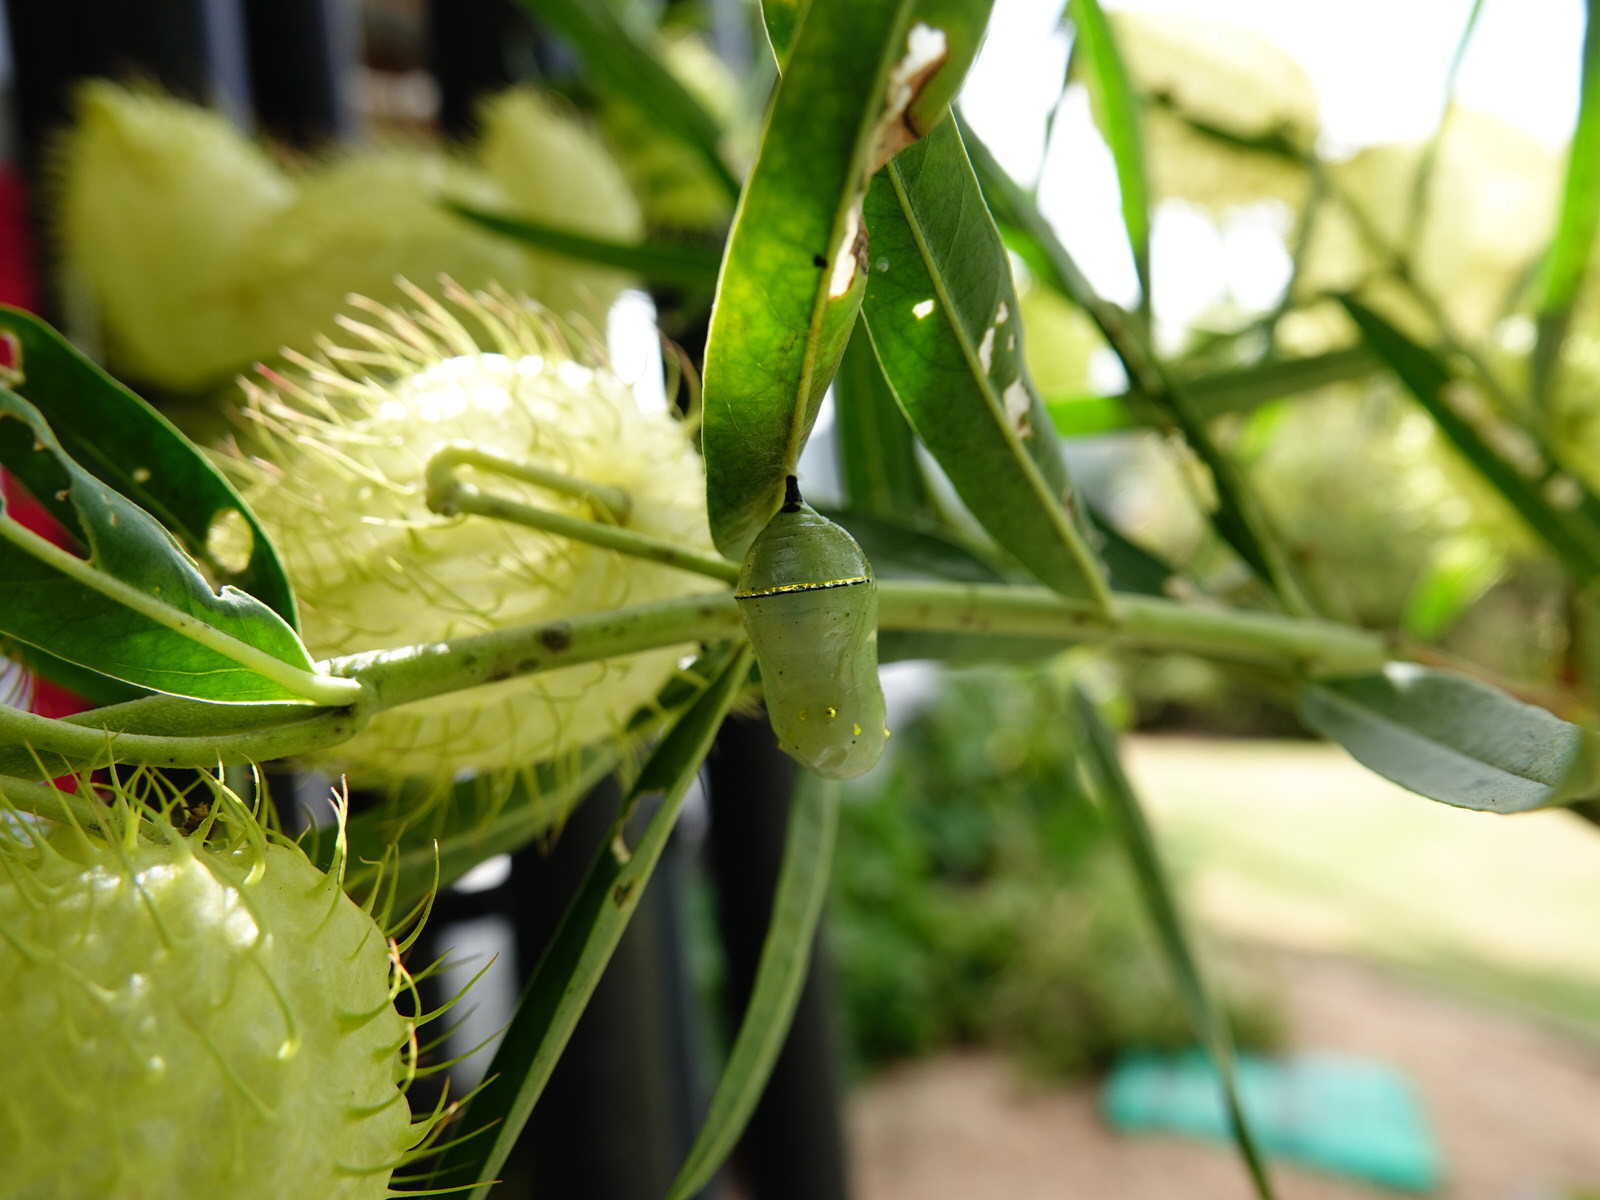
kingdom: Animalia
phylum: Arthropoda
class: Insecta
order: Lepidoptera
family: Nymphalidae
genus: Danaus
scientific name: Danaus plexippus
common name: Monarch
